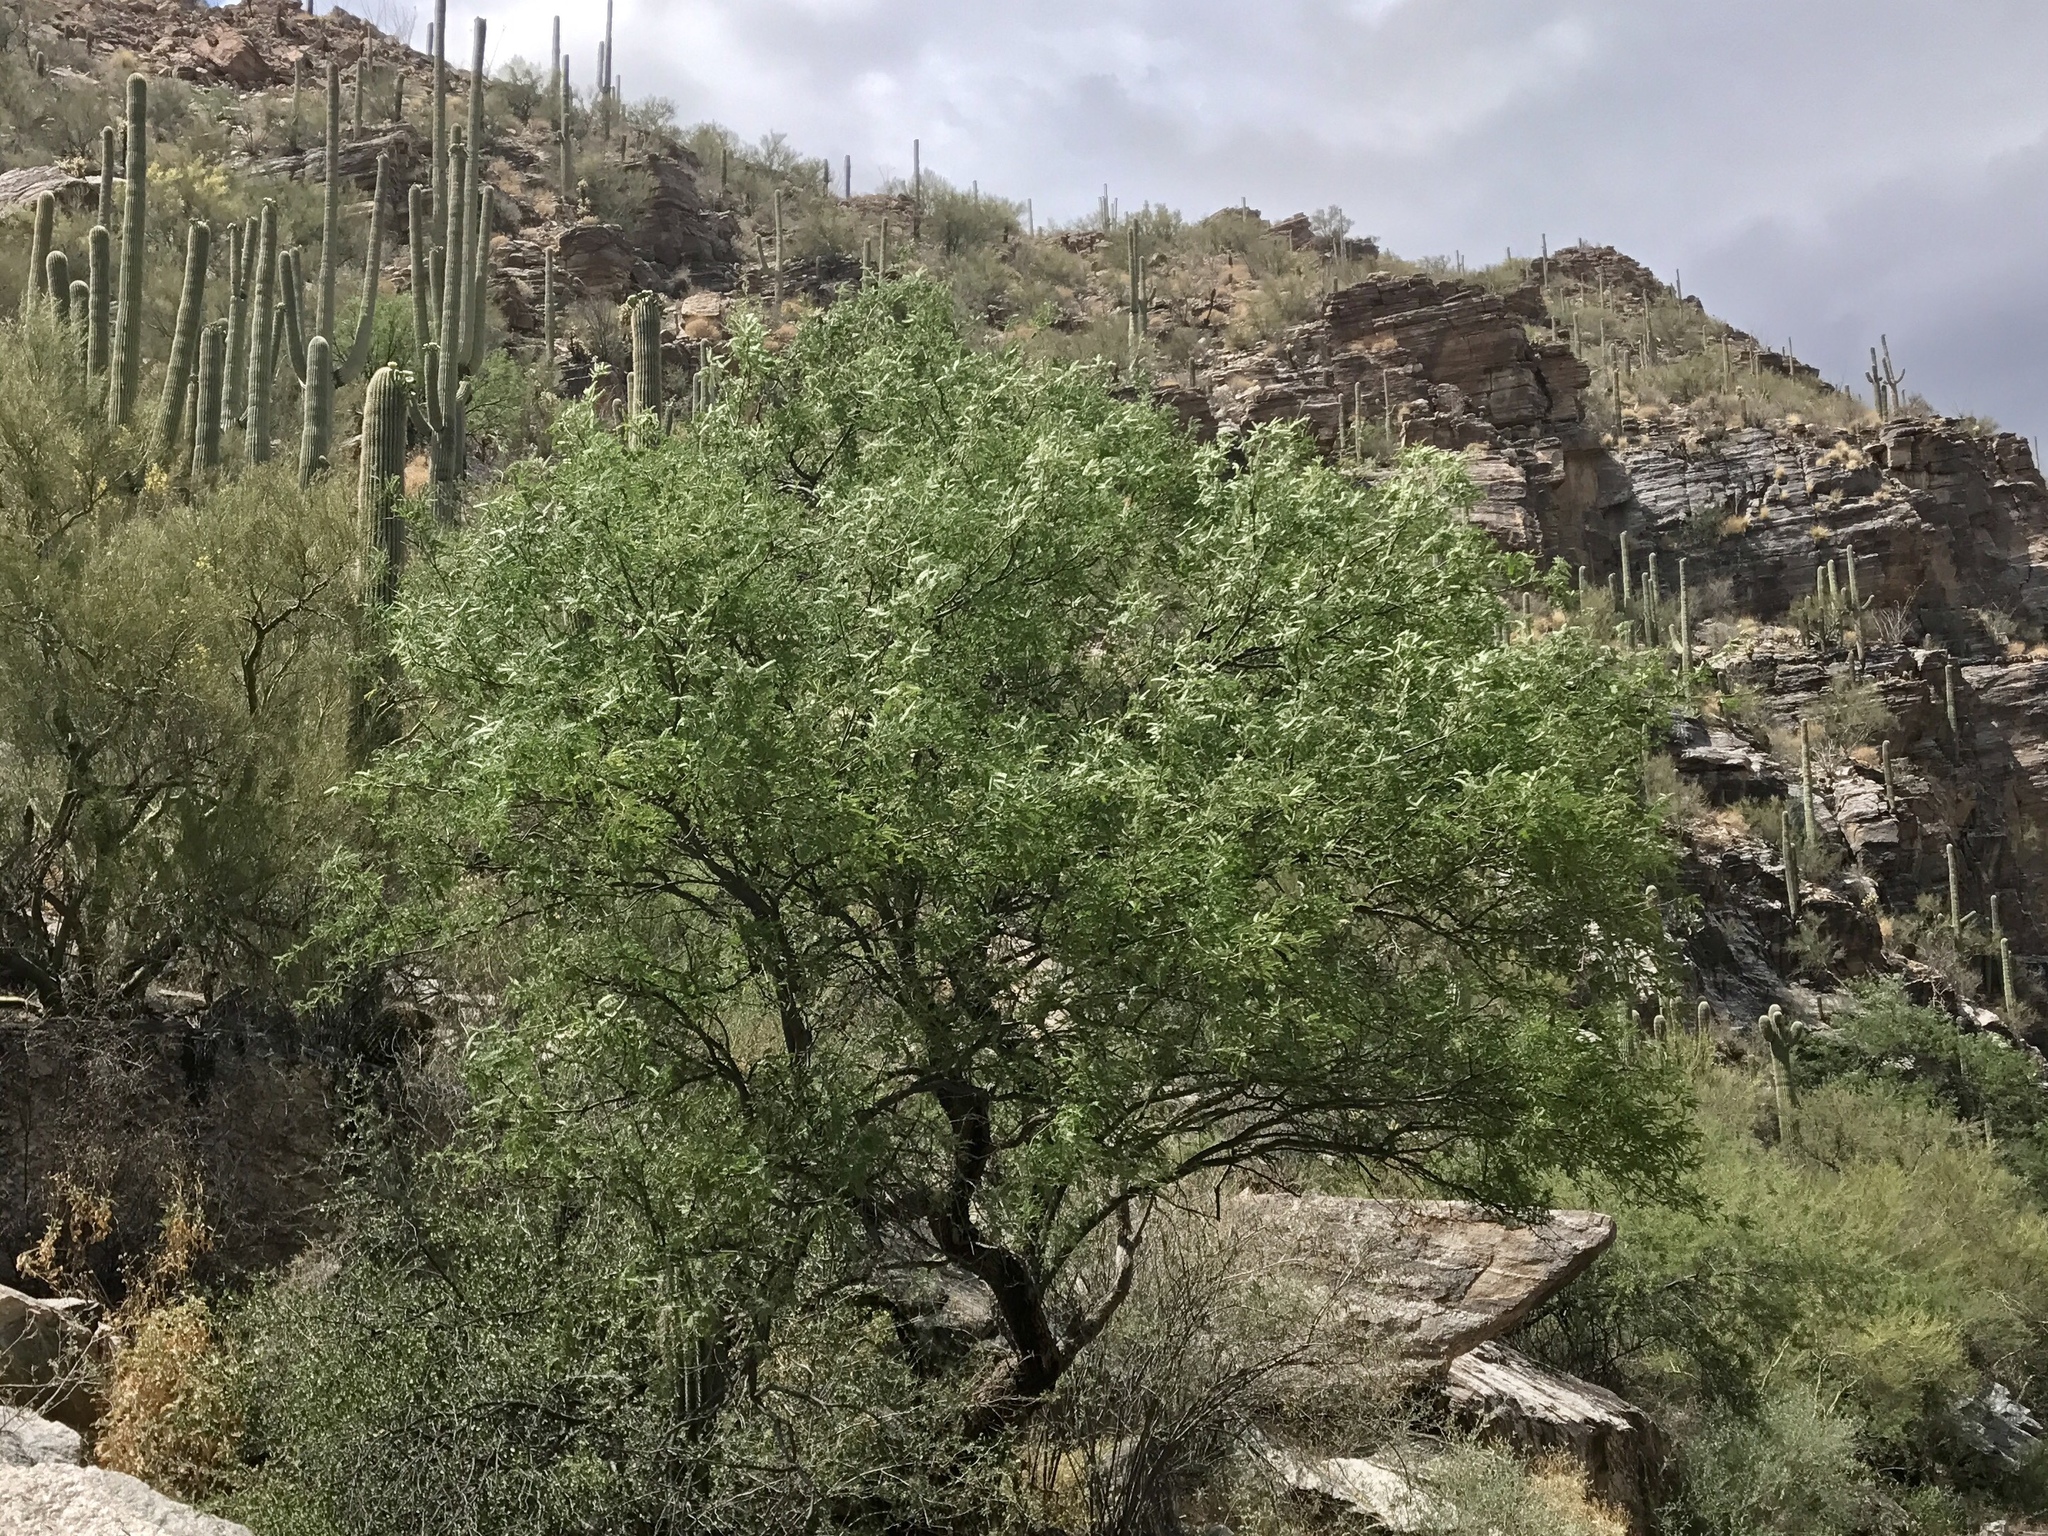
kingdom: Plantae
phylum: Tracheophyta
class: Magnoliopsida
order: Fabales
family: Fabaceae
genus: Prosopis
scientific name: Prosopis velutina
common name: Velvet mesquite
